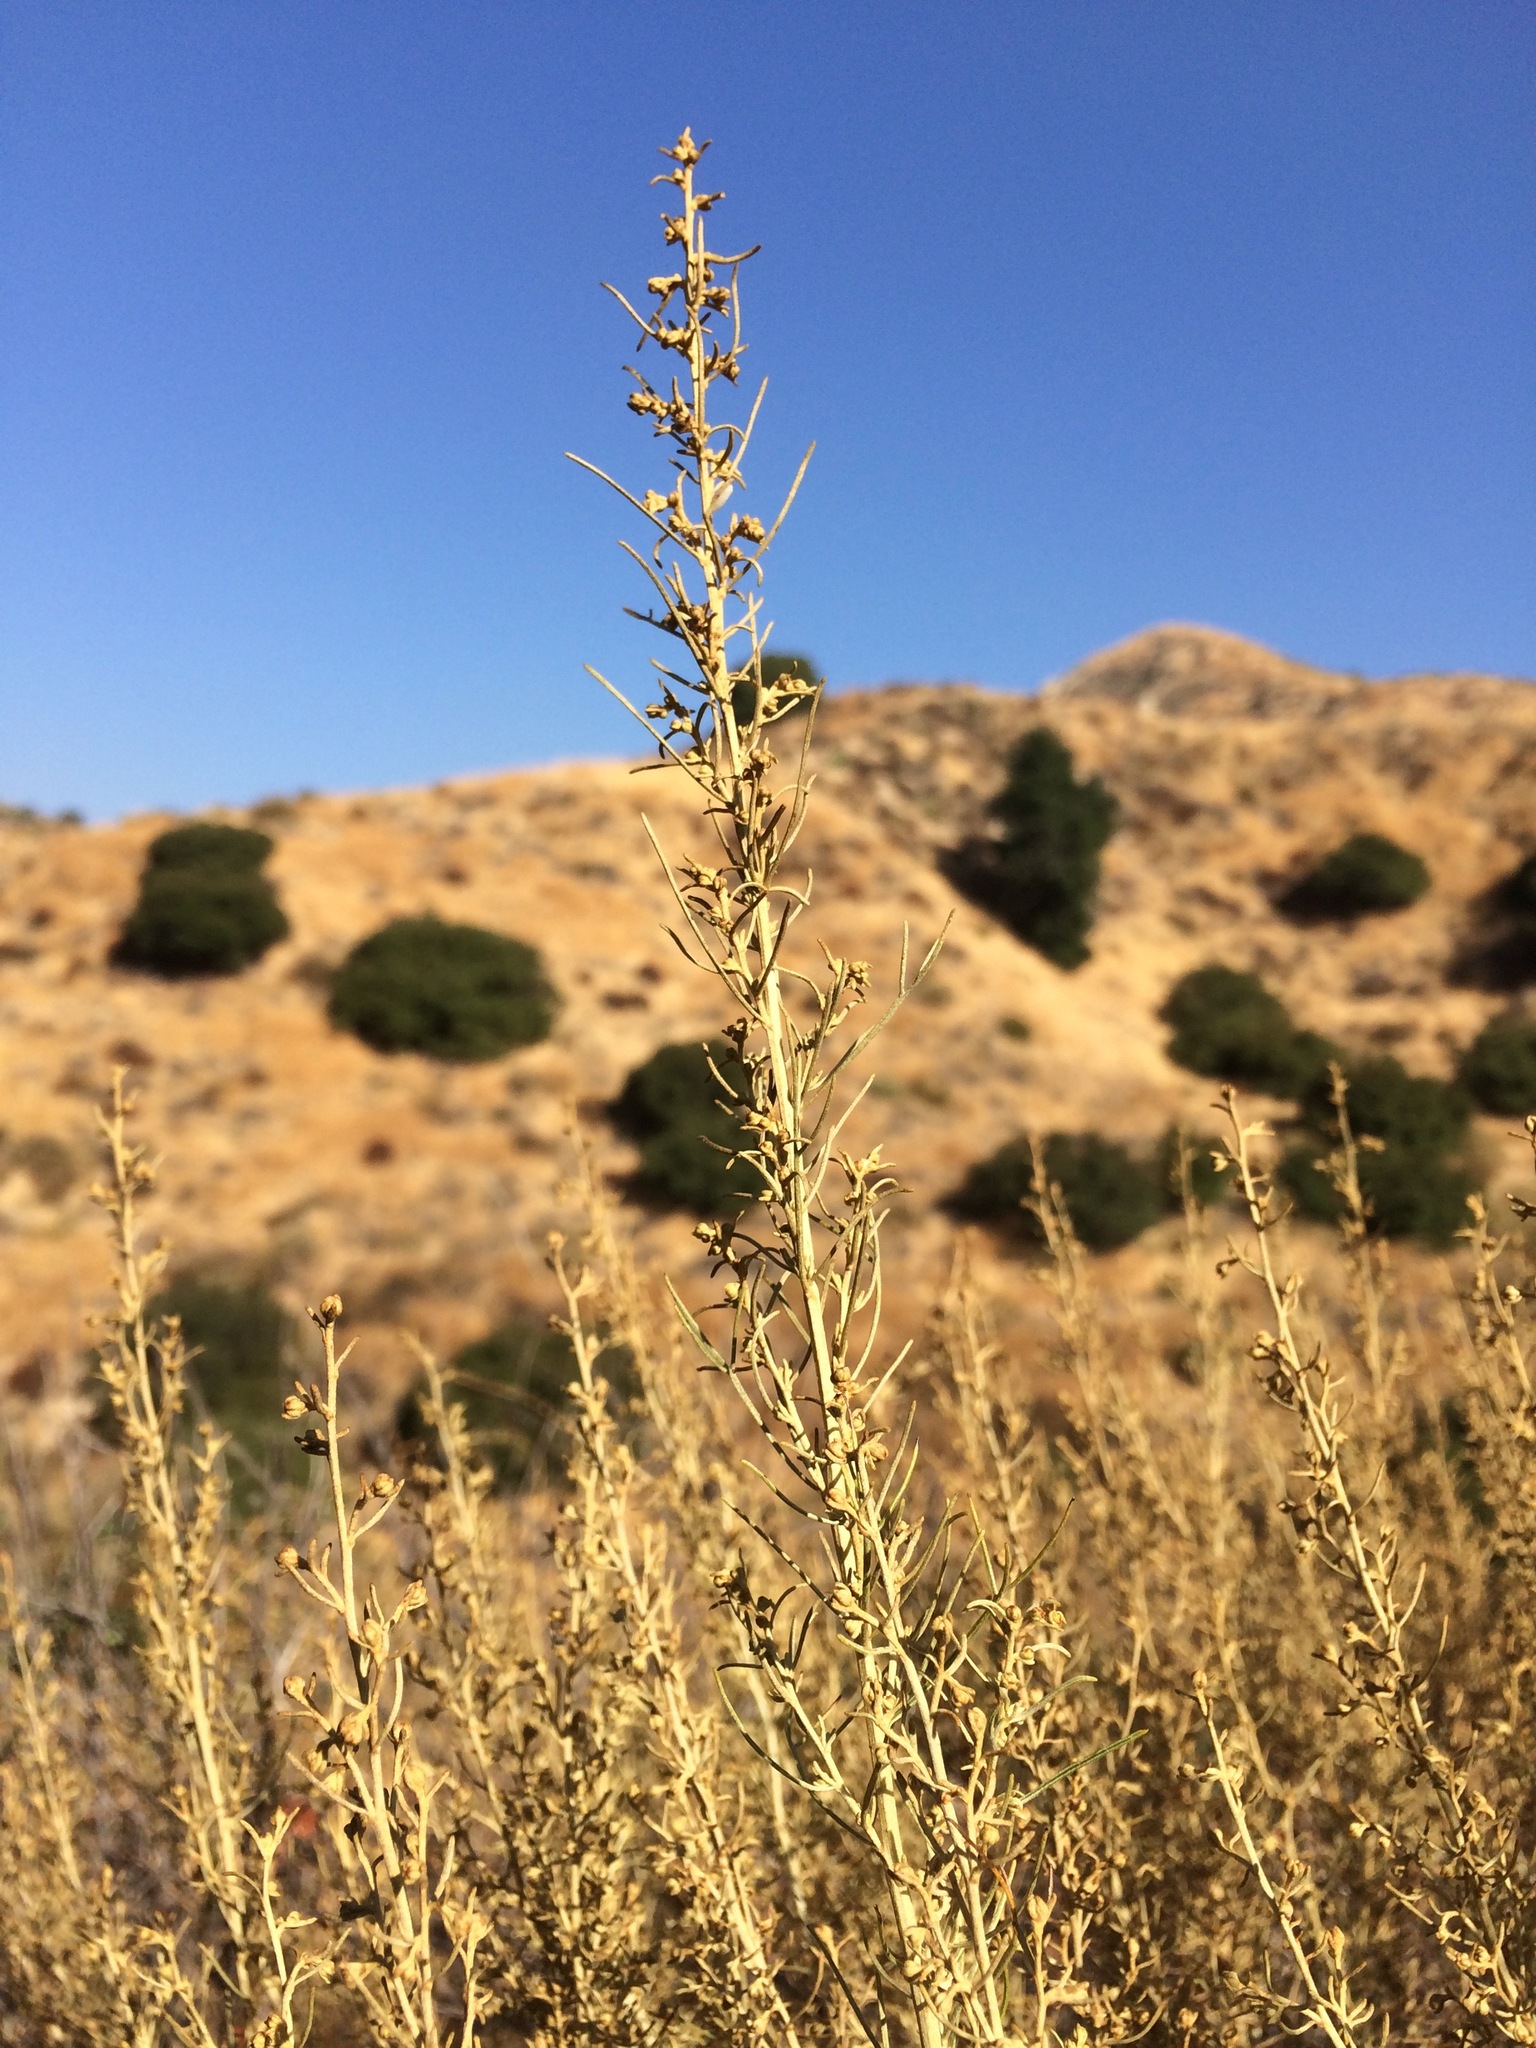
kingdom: Plantae
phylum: Tracheophyta
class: Magnoliopsida
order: Asterales
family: Asteraceae
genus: Artemisia
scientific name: Artemisia californica
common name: California sagebrush
